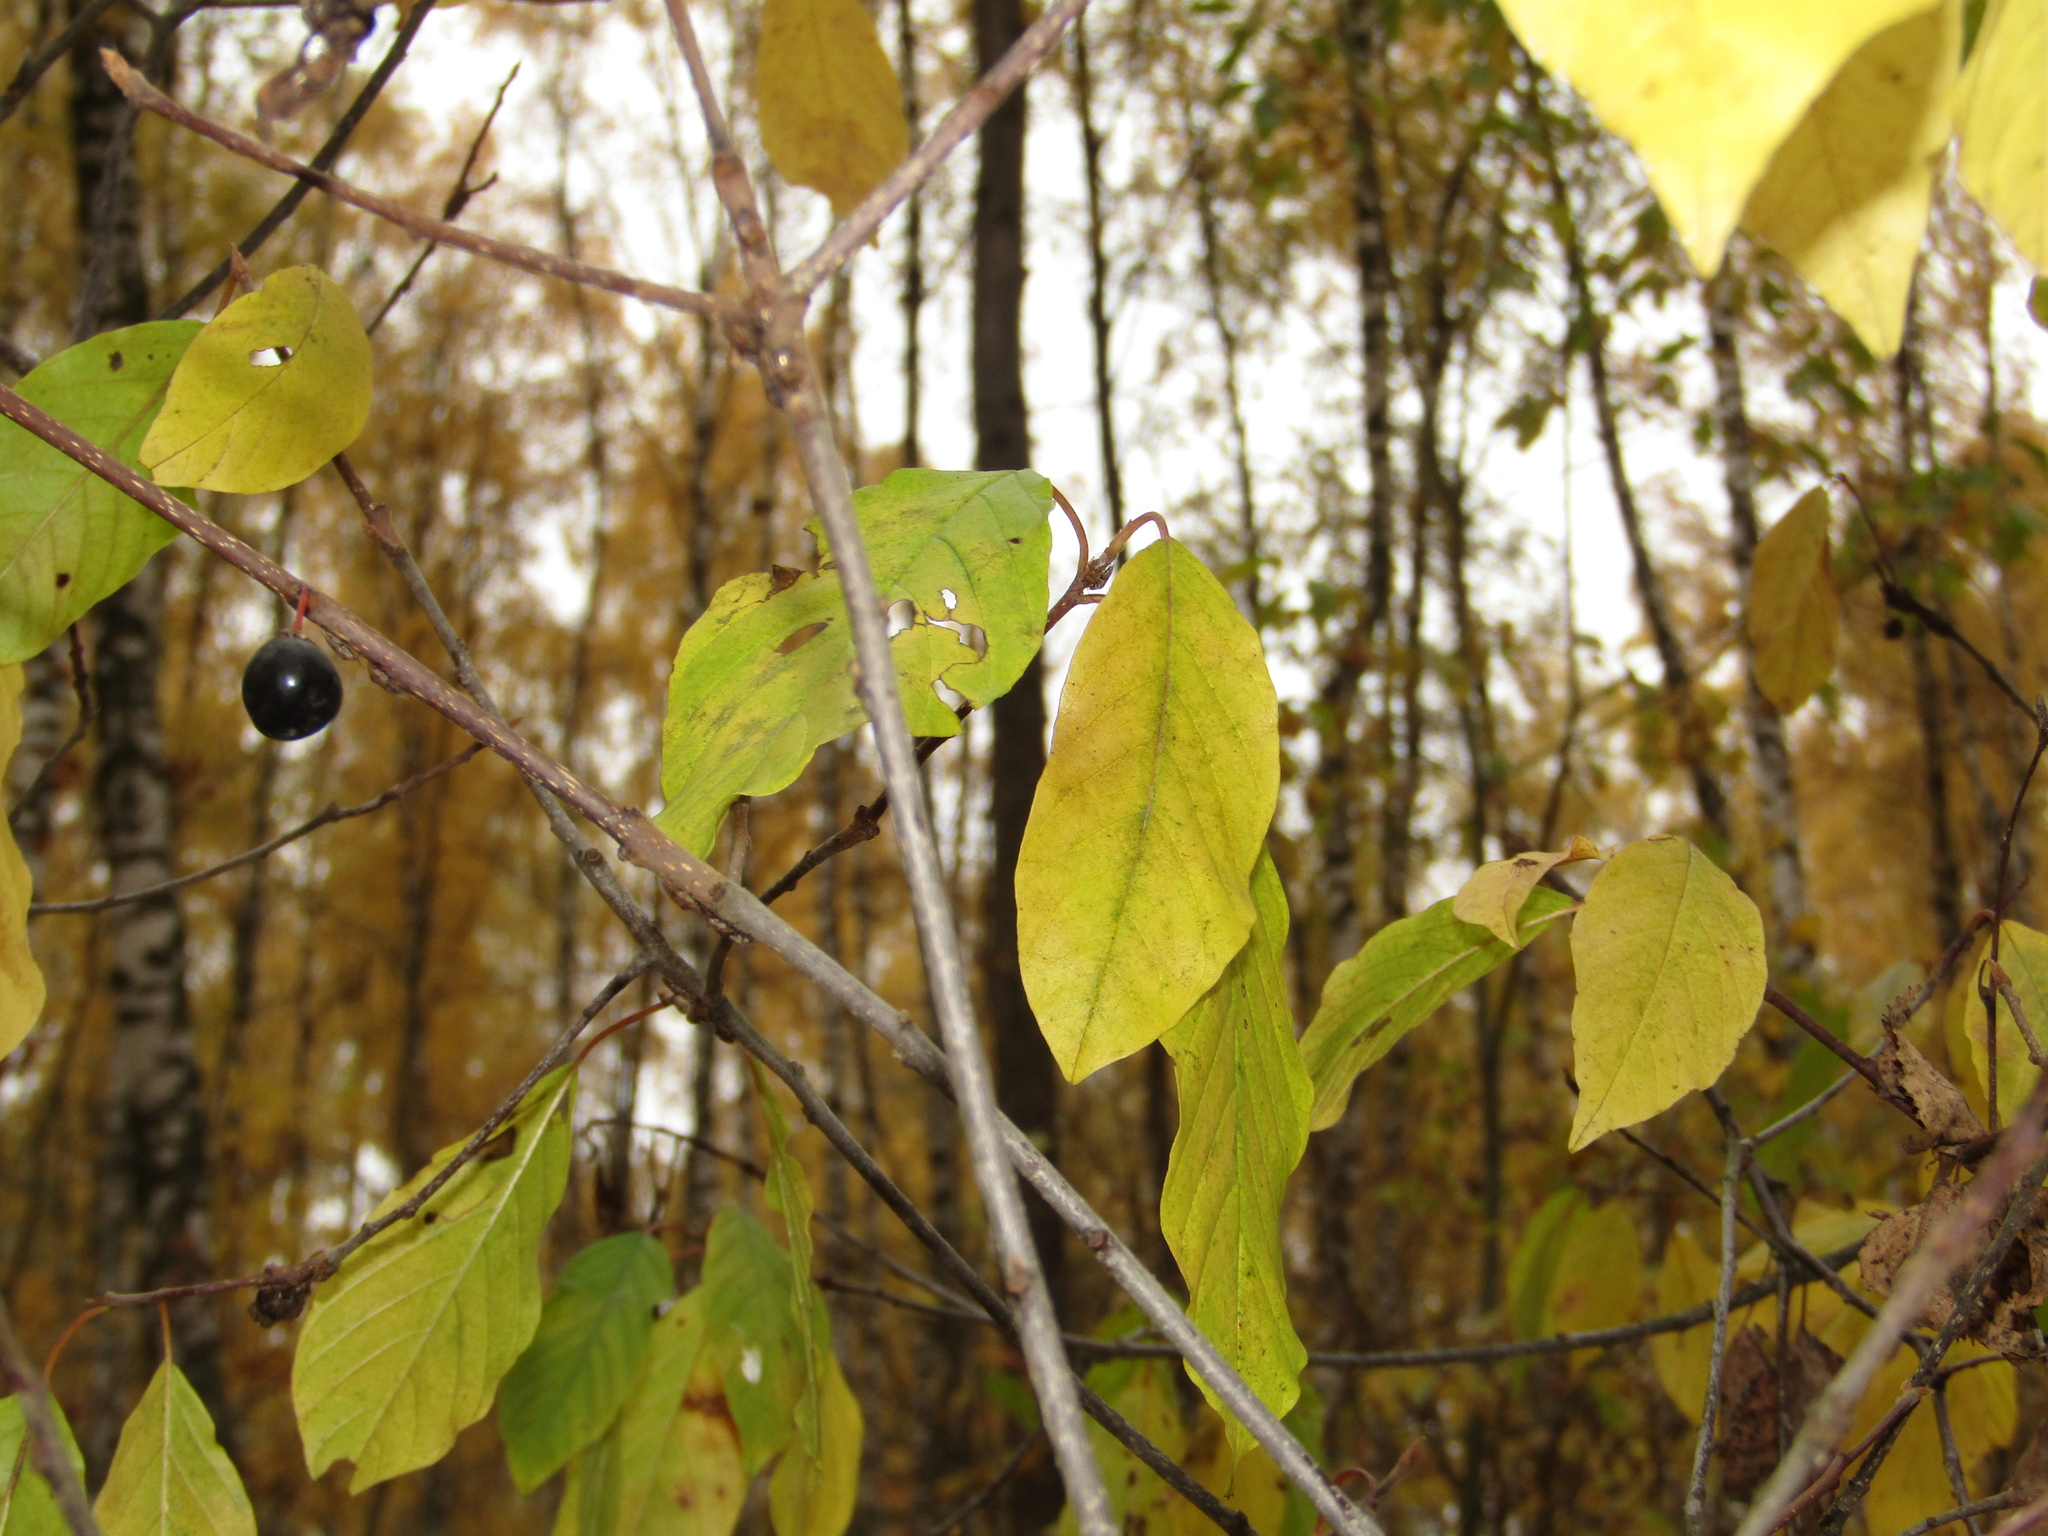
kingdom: Plantae
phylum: Tracheophyta
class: Magnoliopsida
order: Rosales
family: Rhamnaceae
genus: Frangula
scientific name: Frangula alnus
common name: Alder buckthorn
